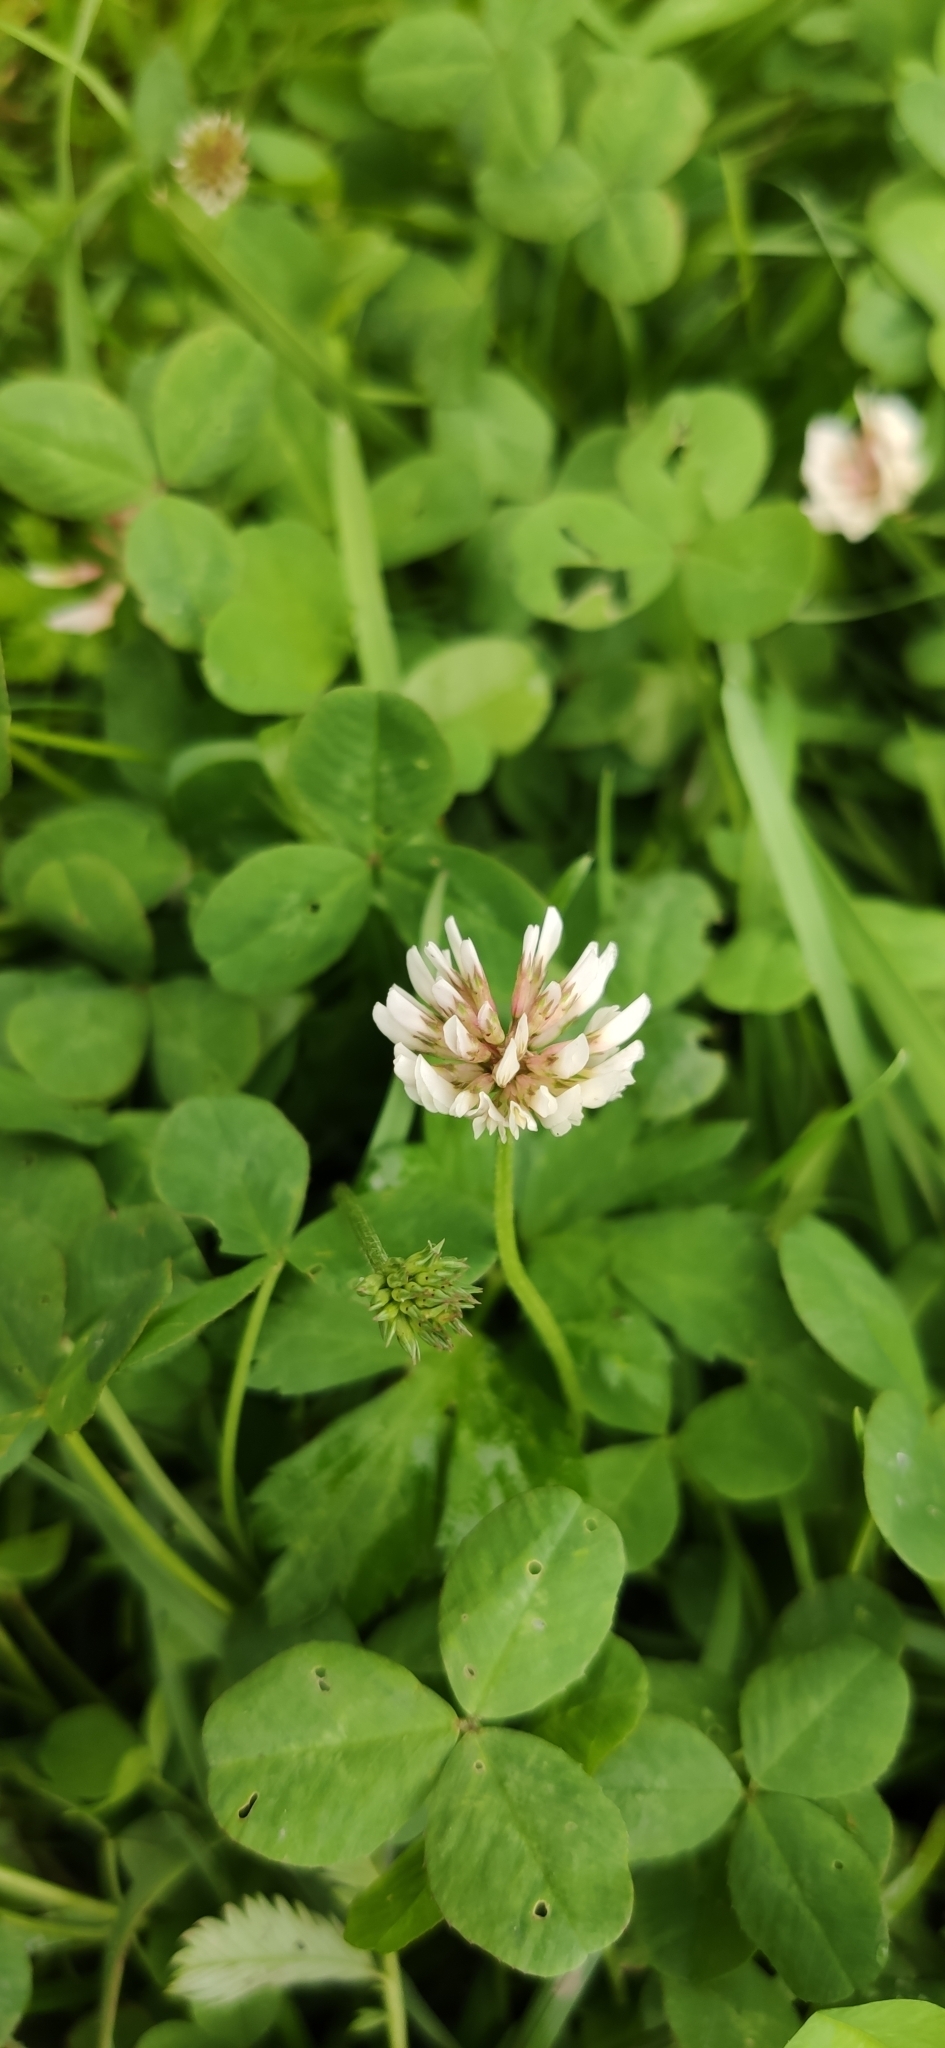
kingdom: Plantae
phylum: Tracheophyta
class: Magnoliopsida
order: Fabales
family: Fabaceae
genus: Trifolium
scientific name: Trifolium repens
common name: White clover
